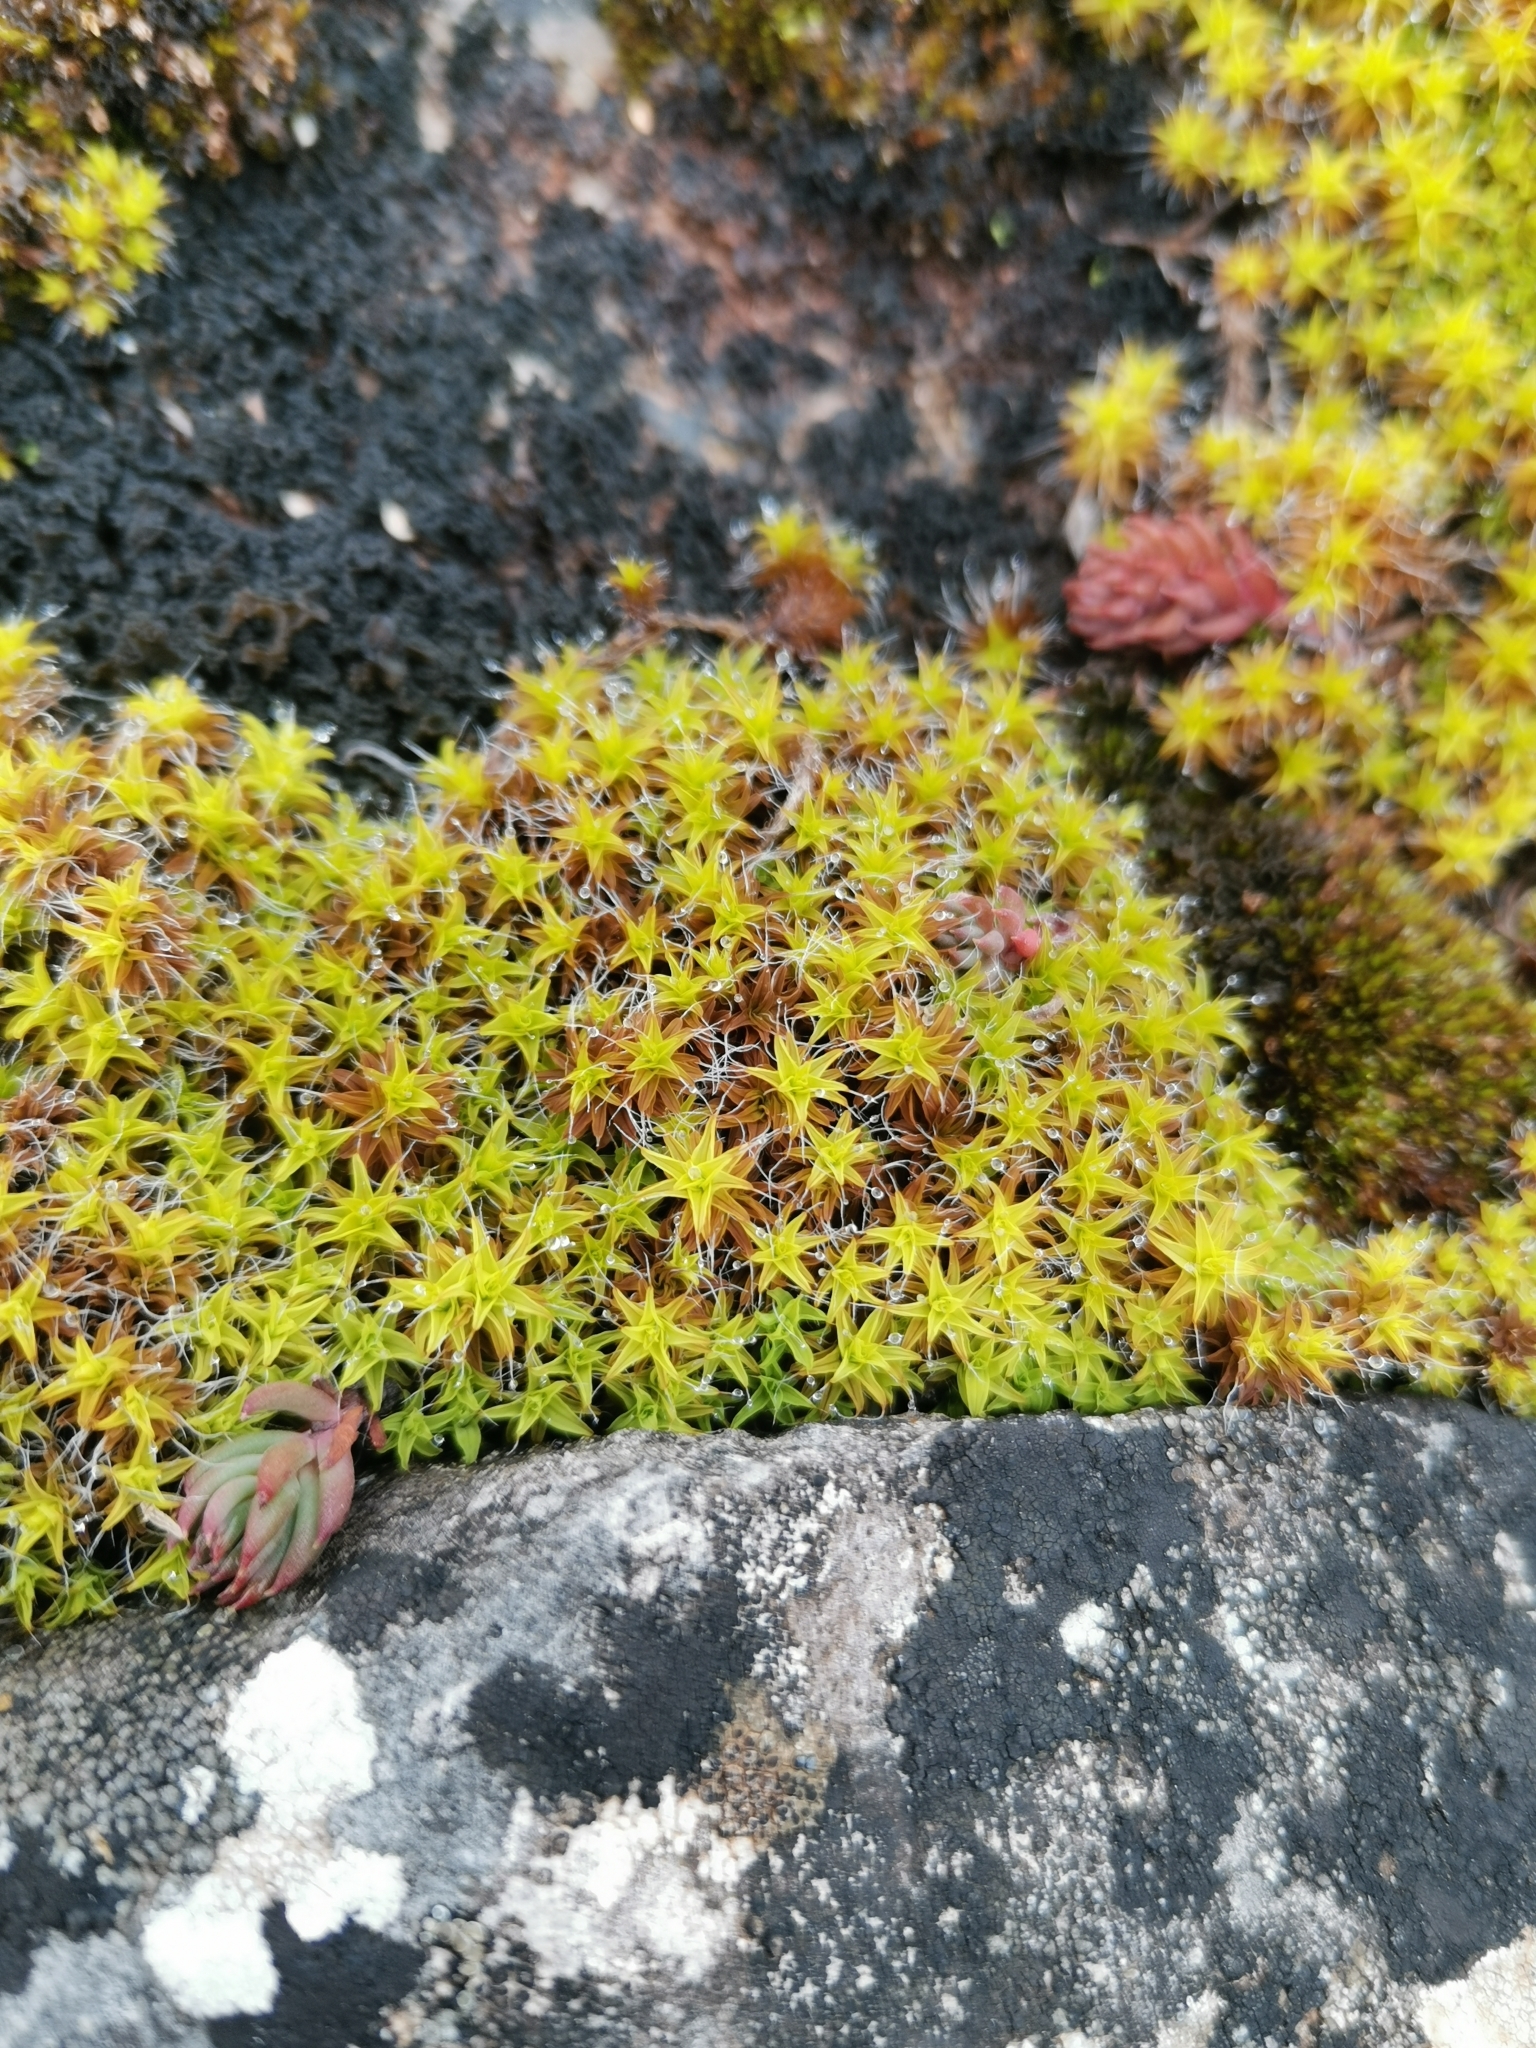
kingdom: Plantae
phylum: Bryophyta
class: Bryopsida
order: Pottiales
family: Pottiaceae
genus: Syntrichia
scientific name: Syntrichia ruralis
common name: Sidewalk screw moss
